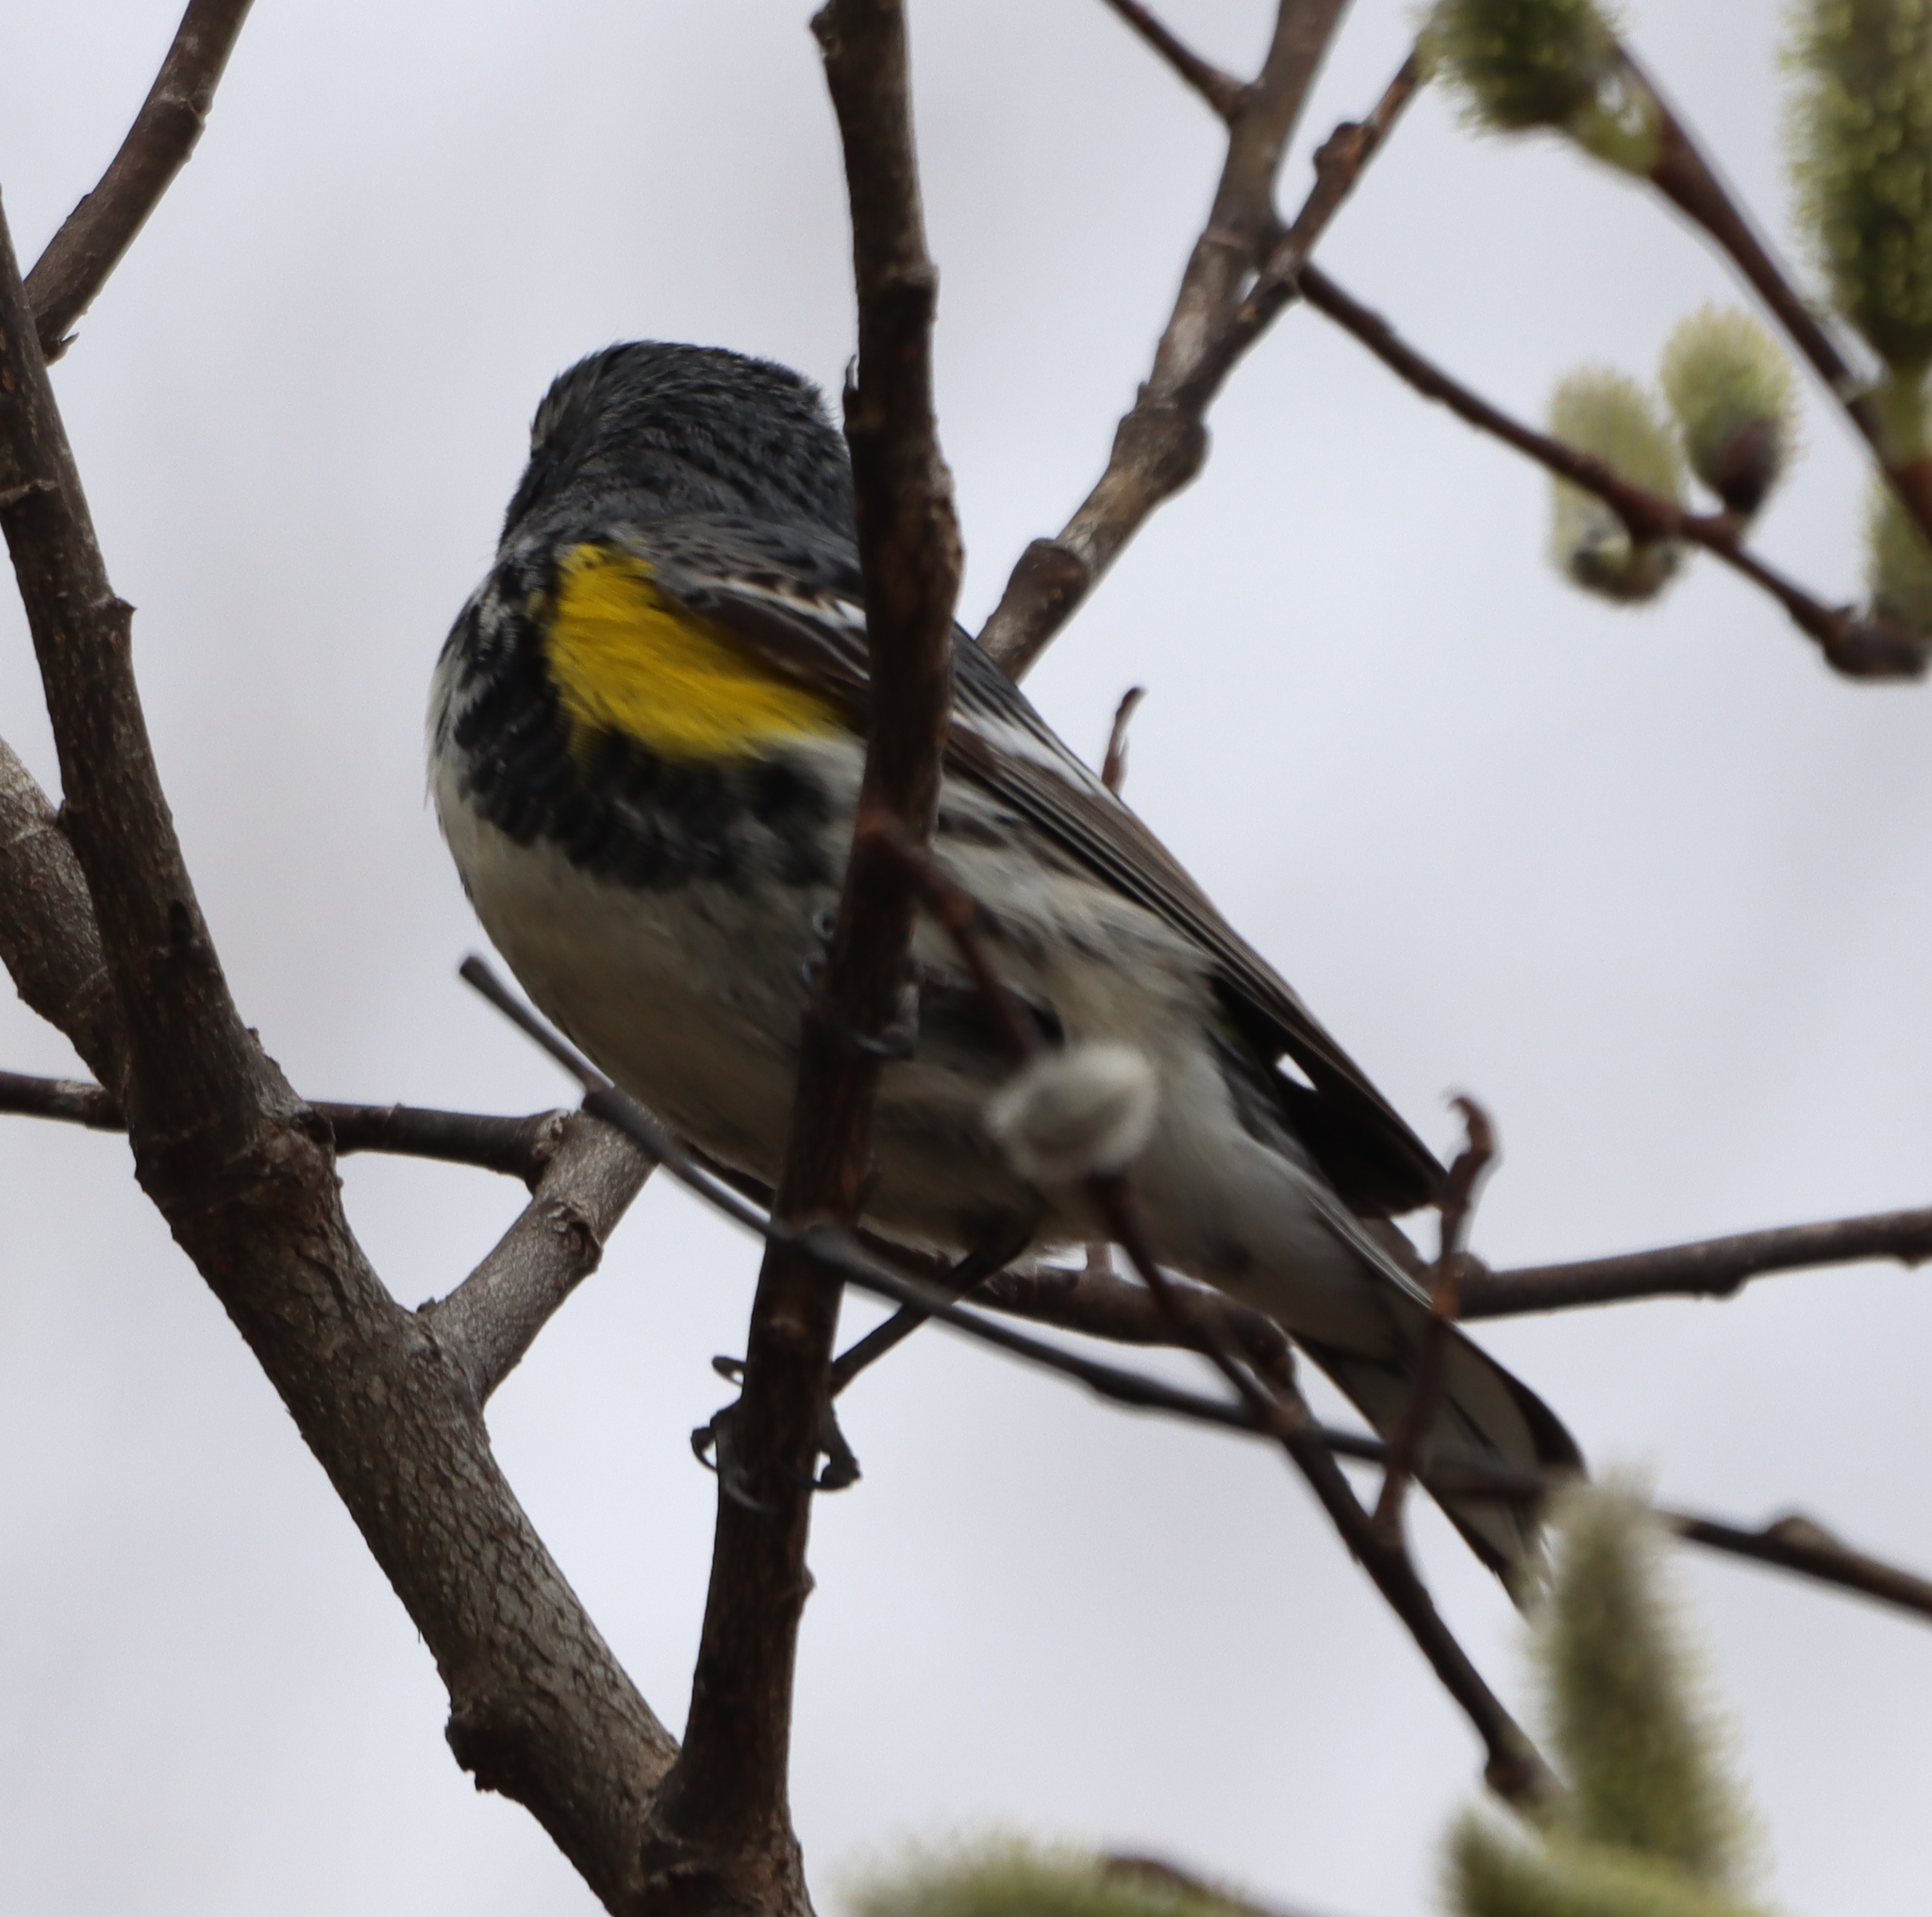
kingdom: Animalia
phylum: Chordata
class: Aves
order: Passeriformes
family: Parulidae
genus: Setophaga
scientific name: Setophaga coronata
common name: Myrtle warbler
